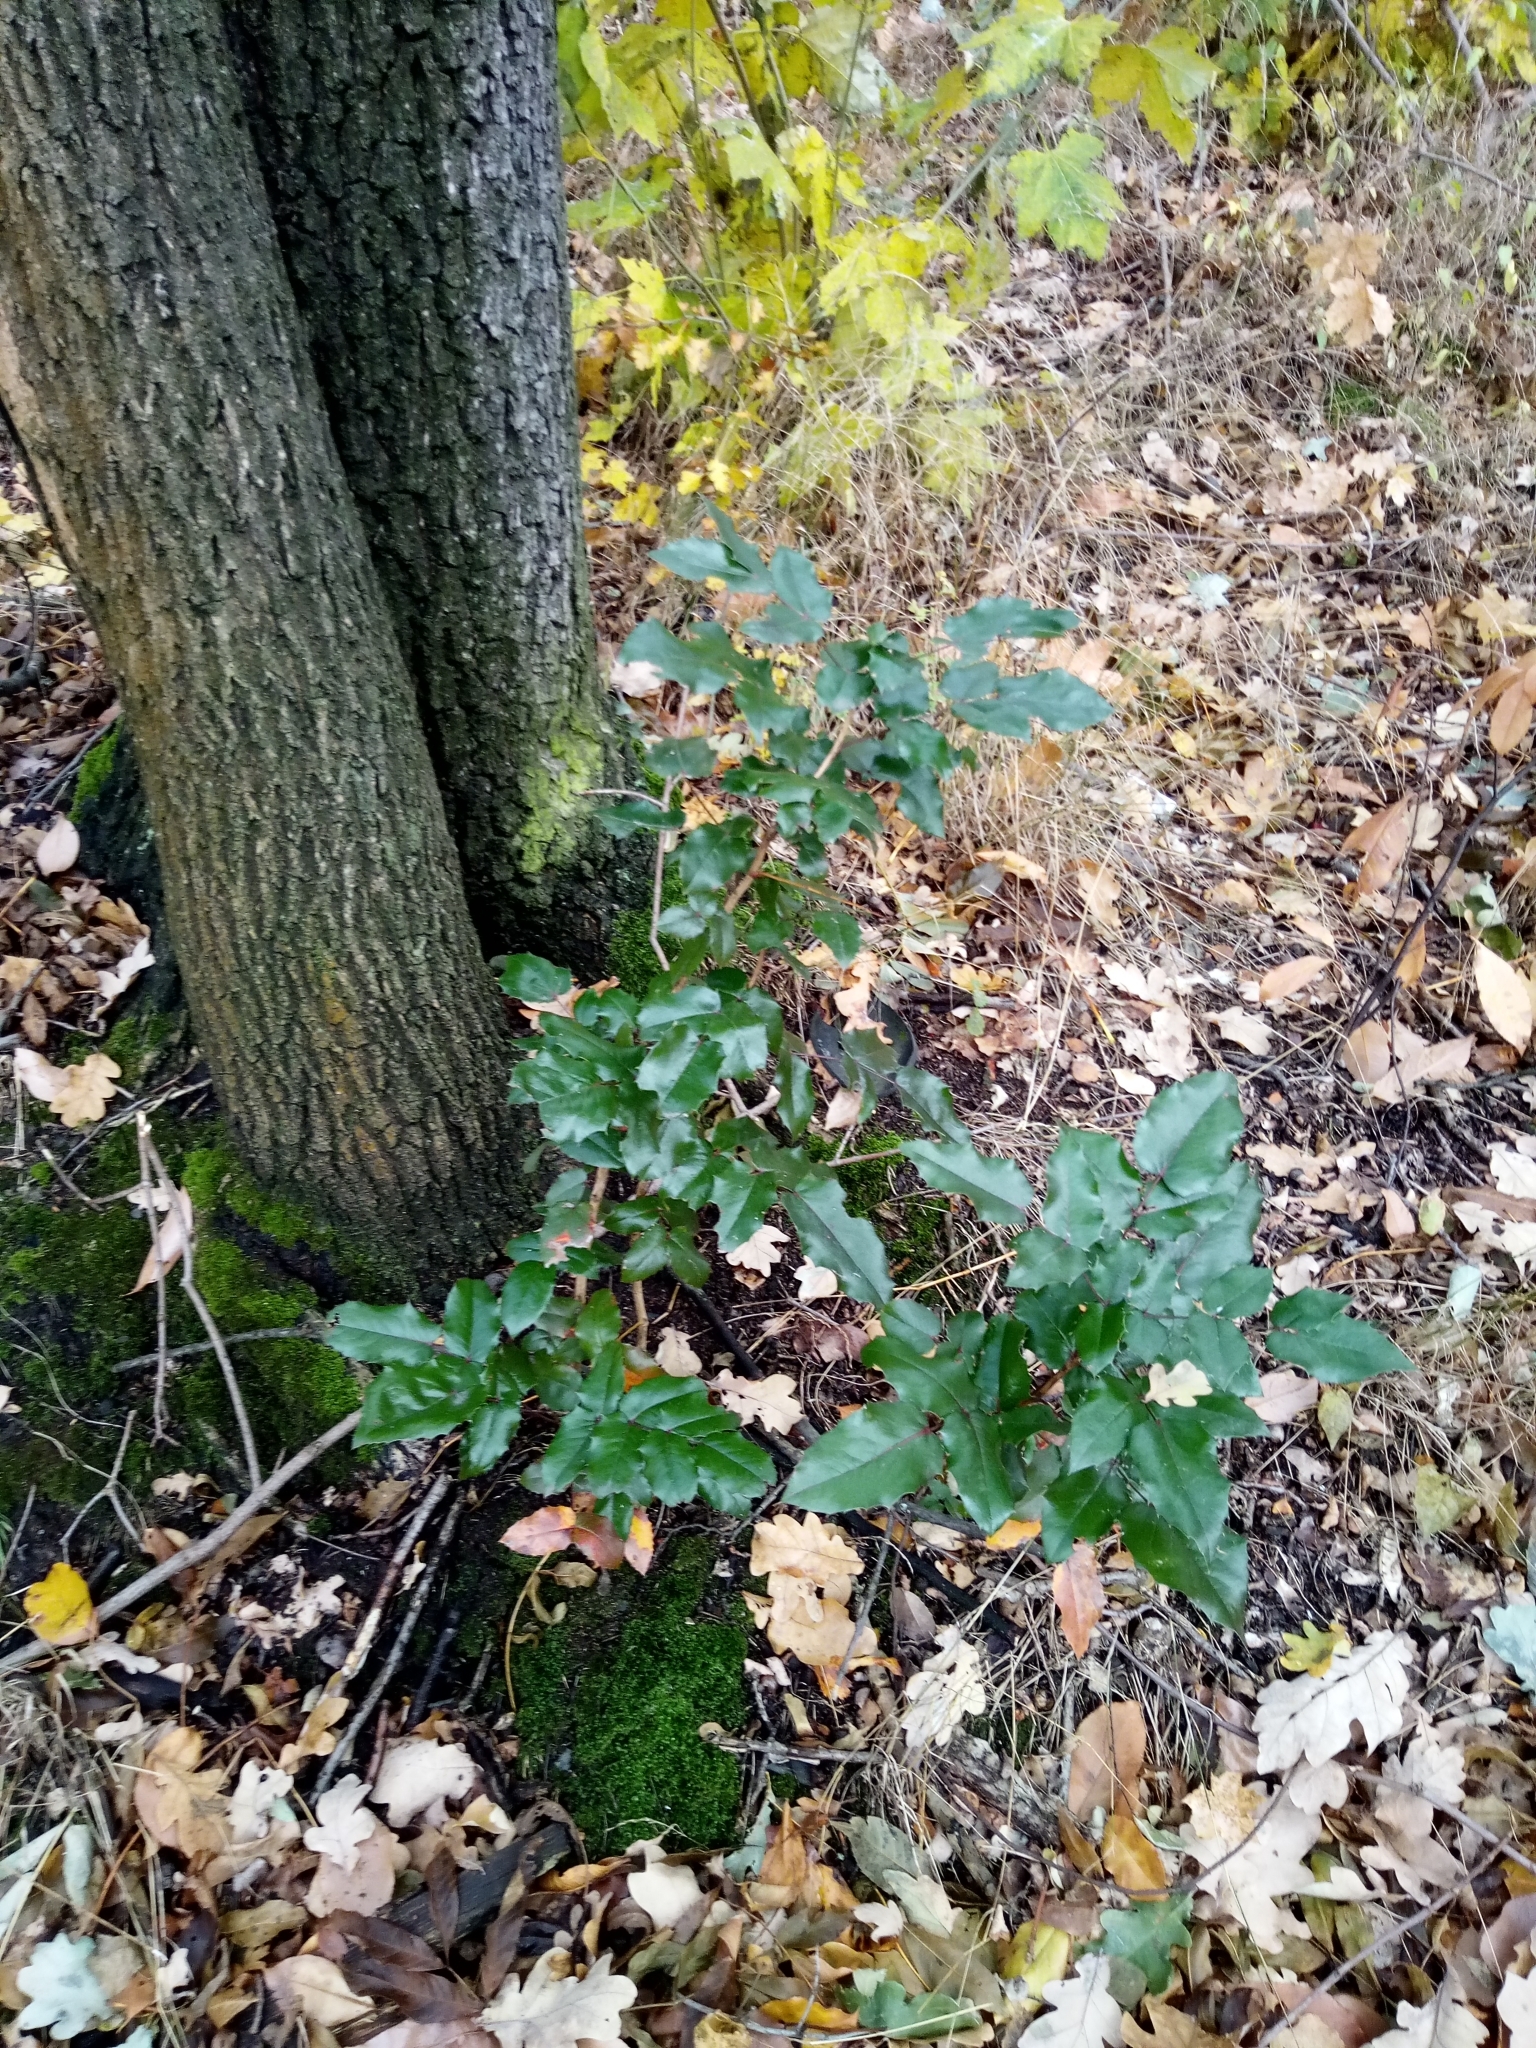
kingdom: Plantae
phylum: Tracheophyta
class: Magnoliopsida
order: Ranunculales
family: Berberidaceae
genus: Mahonia
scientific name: Mahonia aquifolium
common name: Oregon-grape
